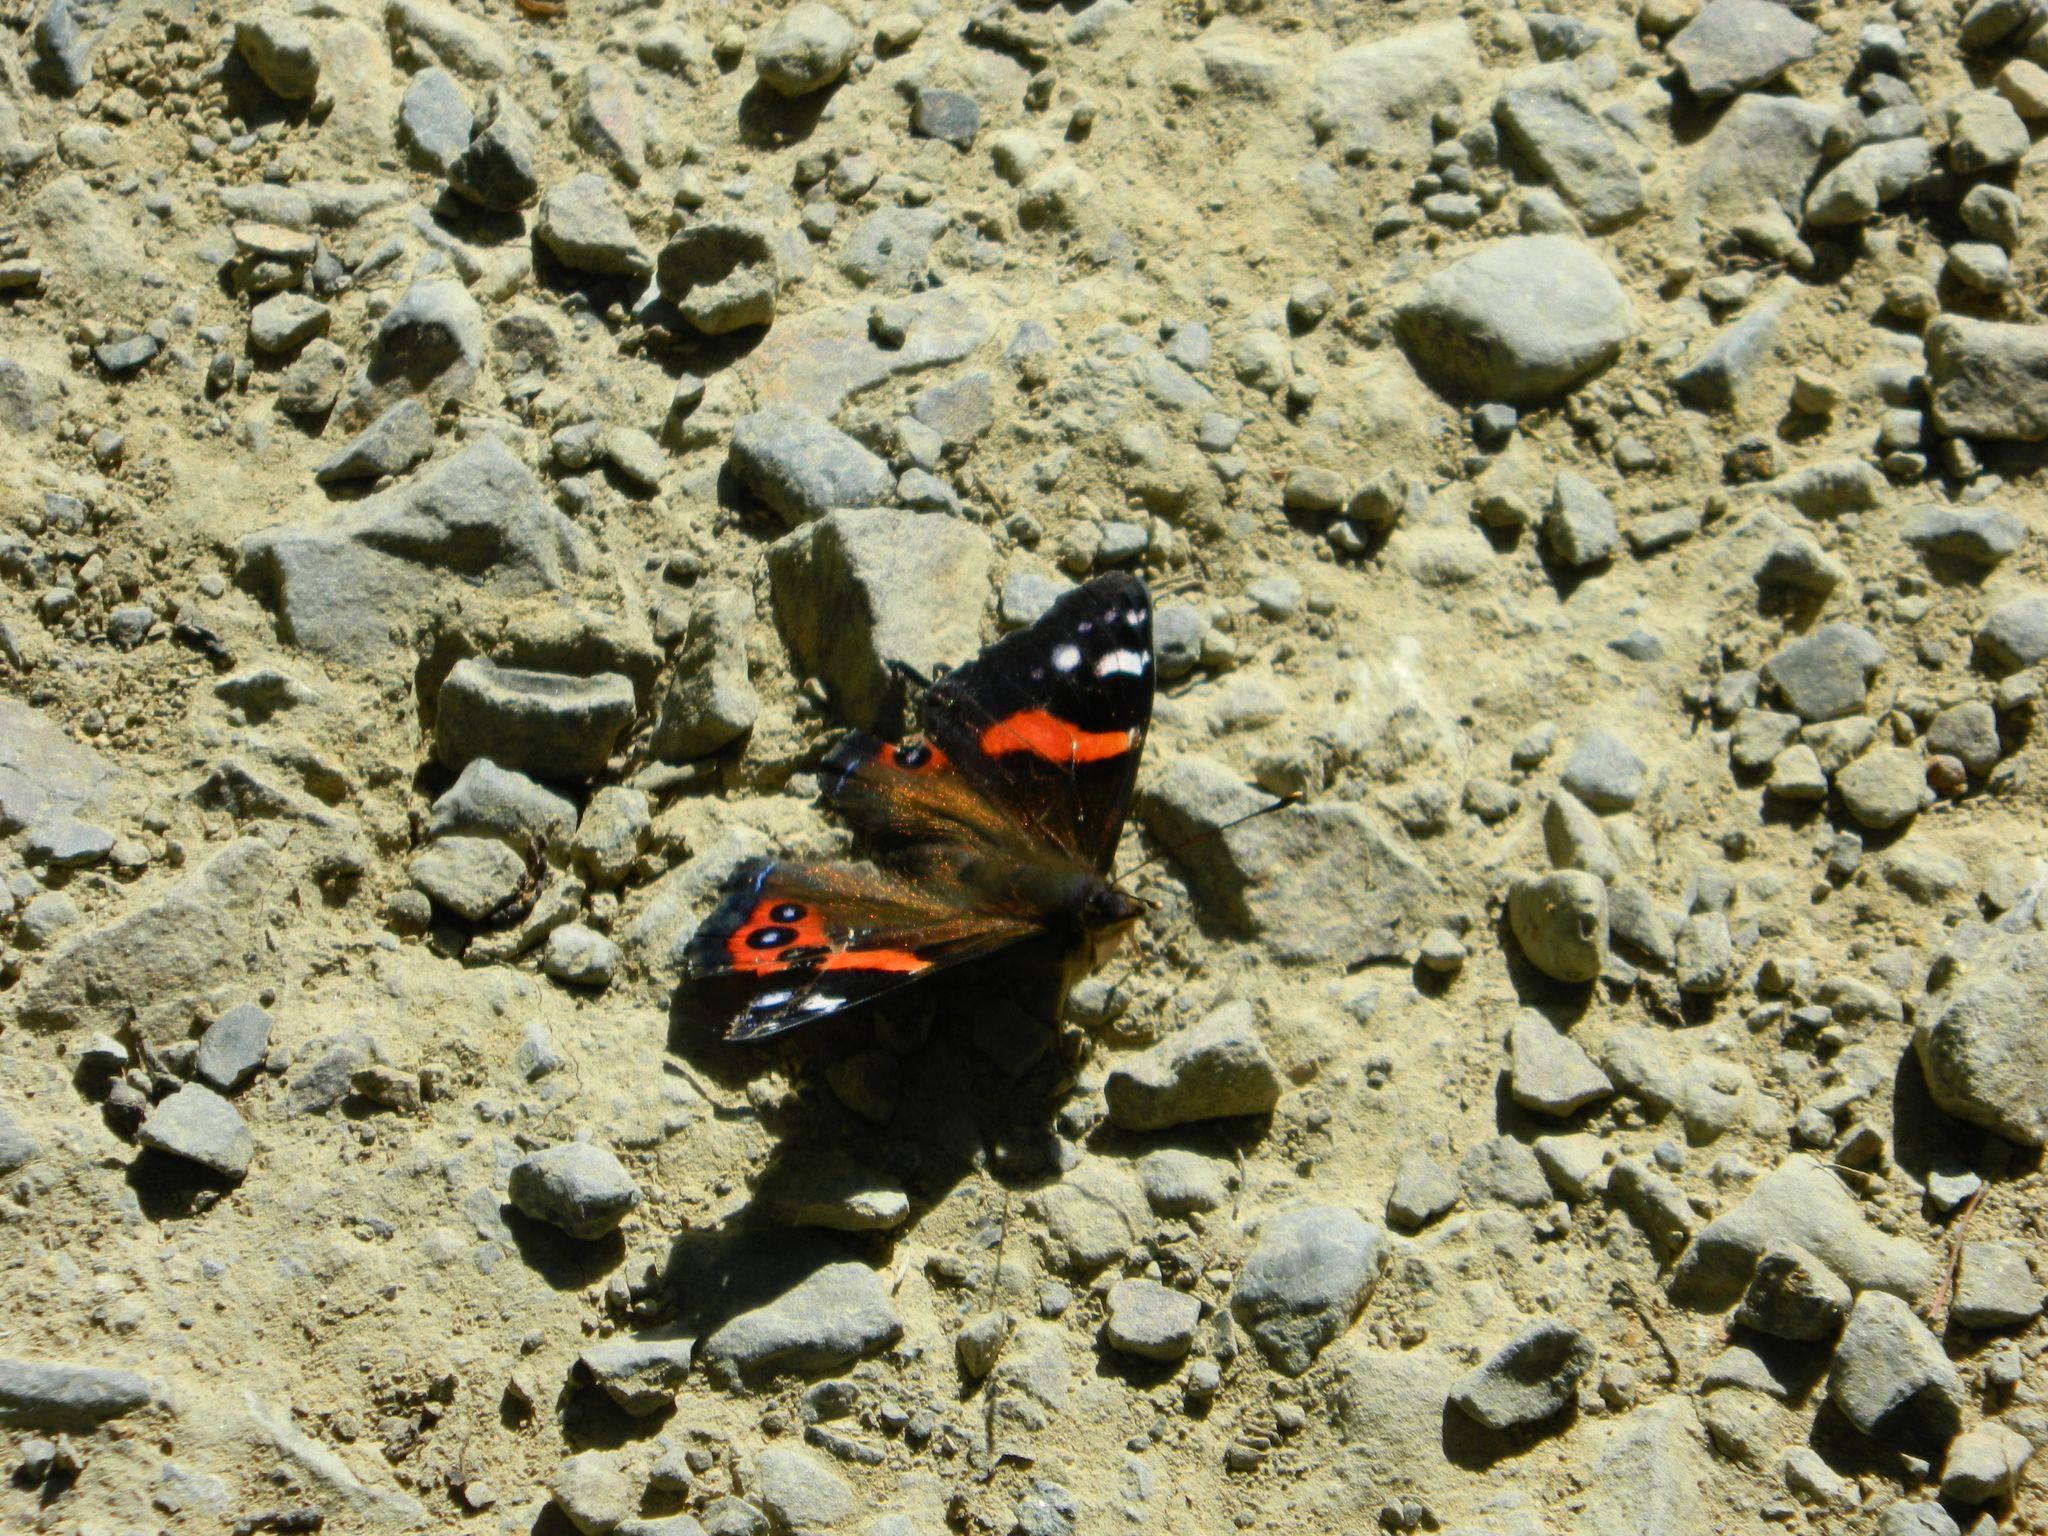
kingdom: Animalia
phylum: Arthropoda
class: Insecta
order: Lepidoptera
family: Nymphalidae
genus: Vanessa
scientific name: Vanessa gonerilla
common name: New zealand red admiral
